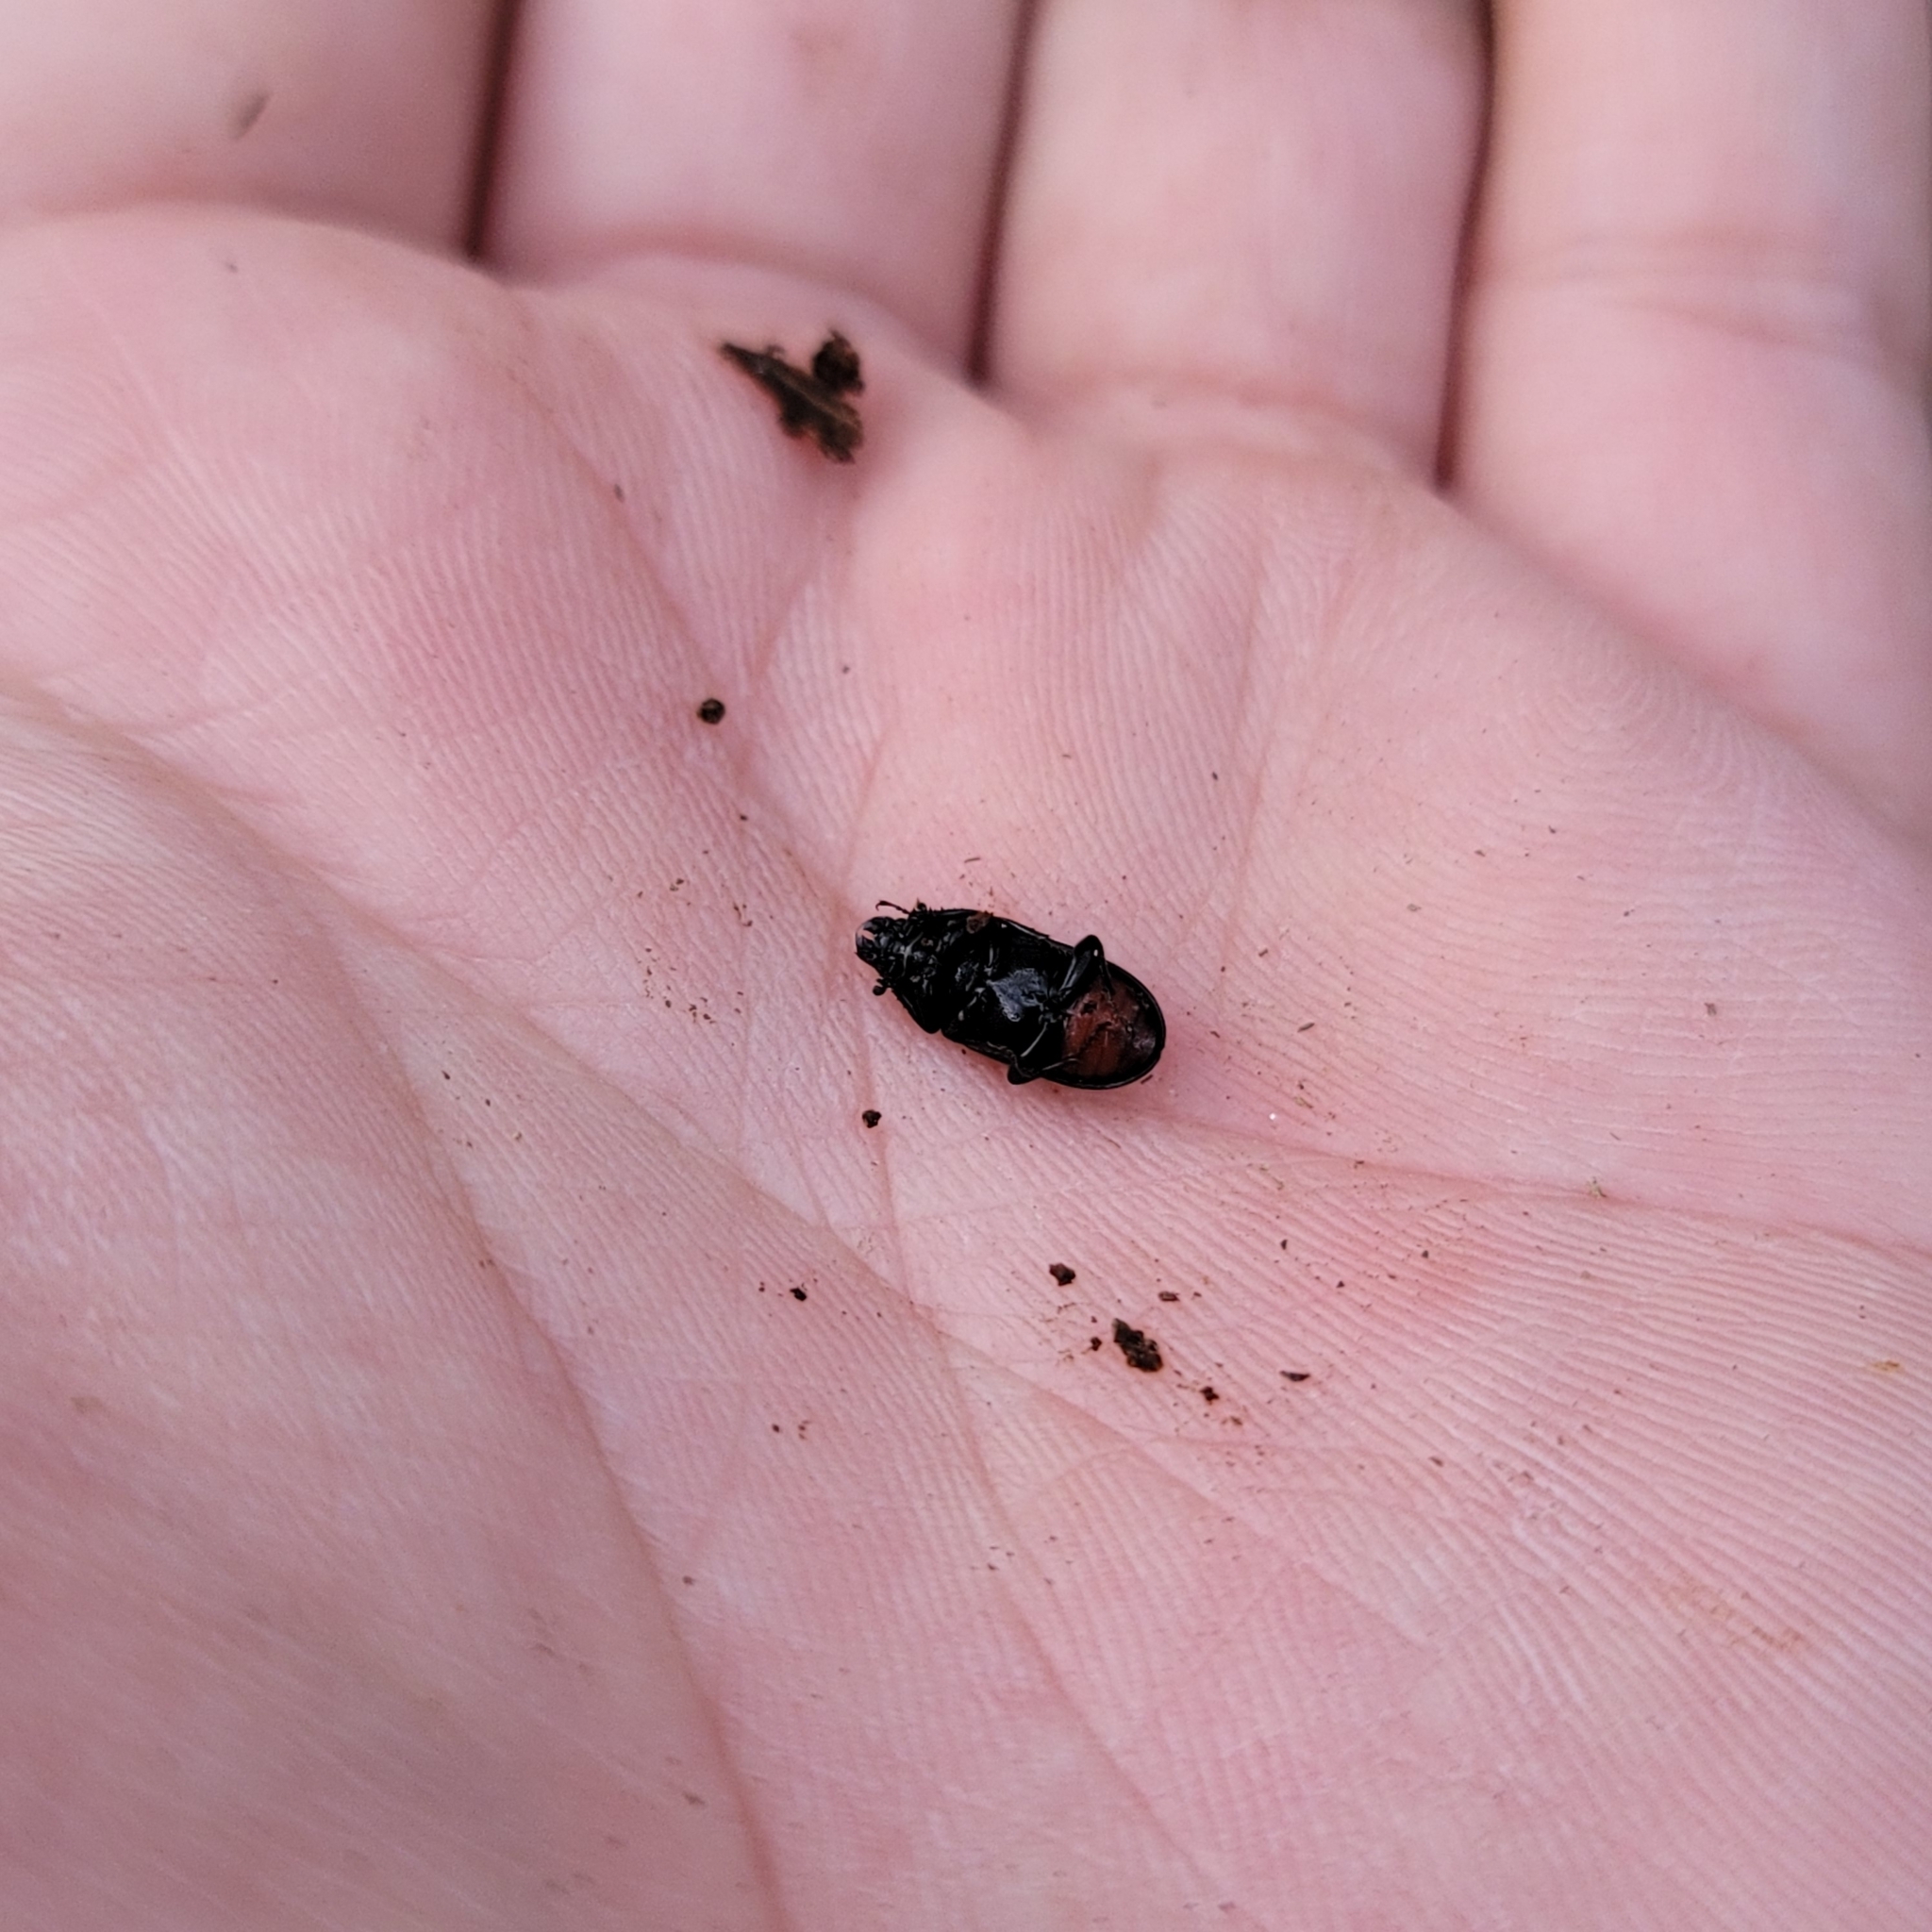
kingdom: Animalia
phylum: Arthropoda
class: Insecta
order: Coleoptera
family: Lucanidae
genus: Platycerus
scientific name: Platycerus quercus
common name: Oak stag beetle
